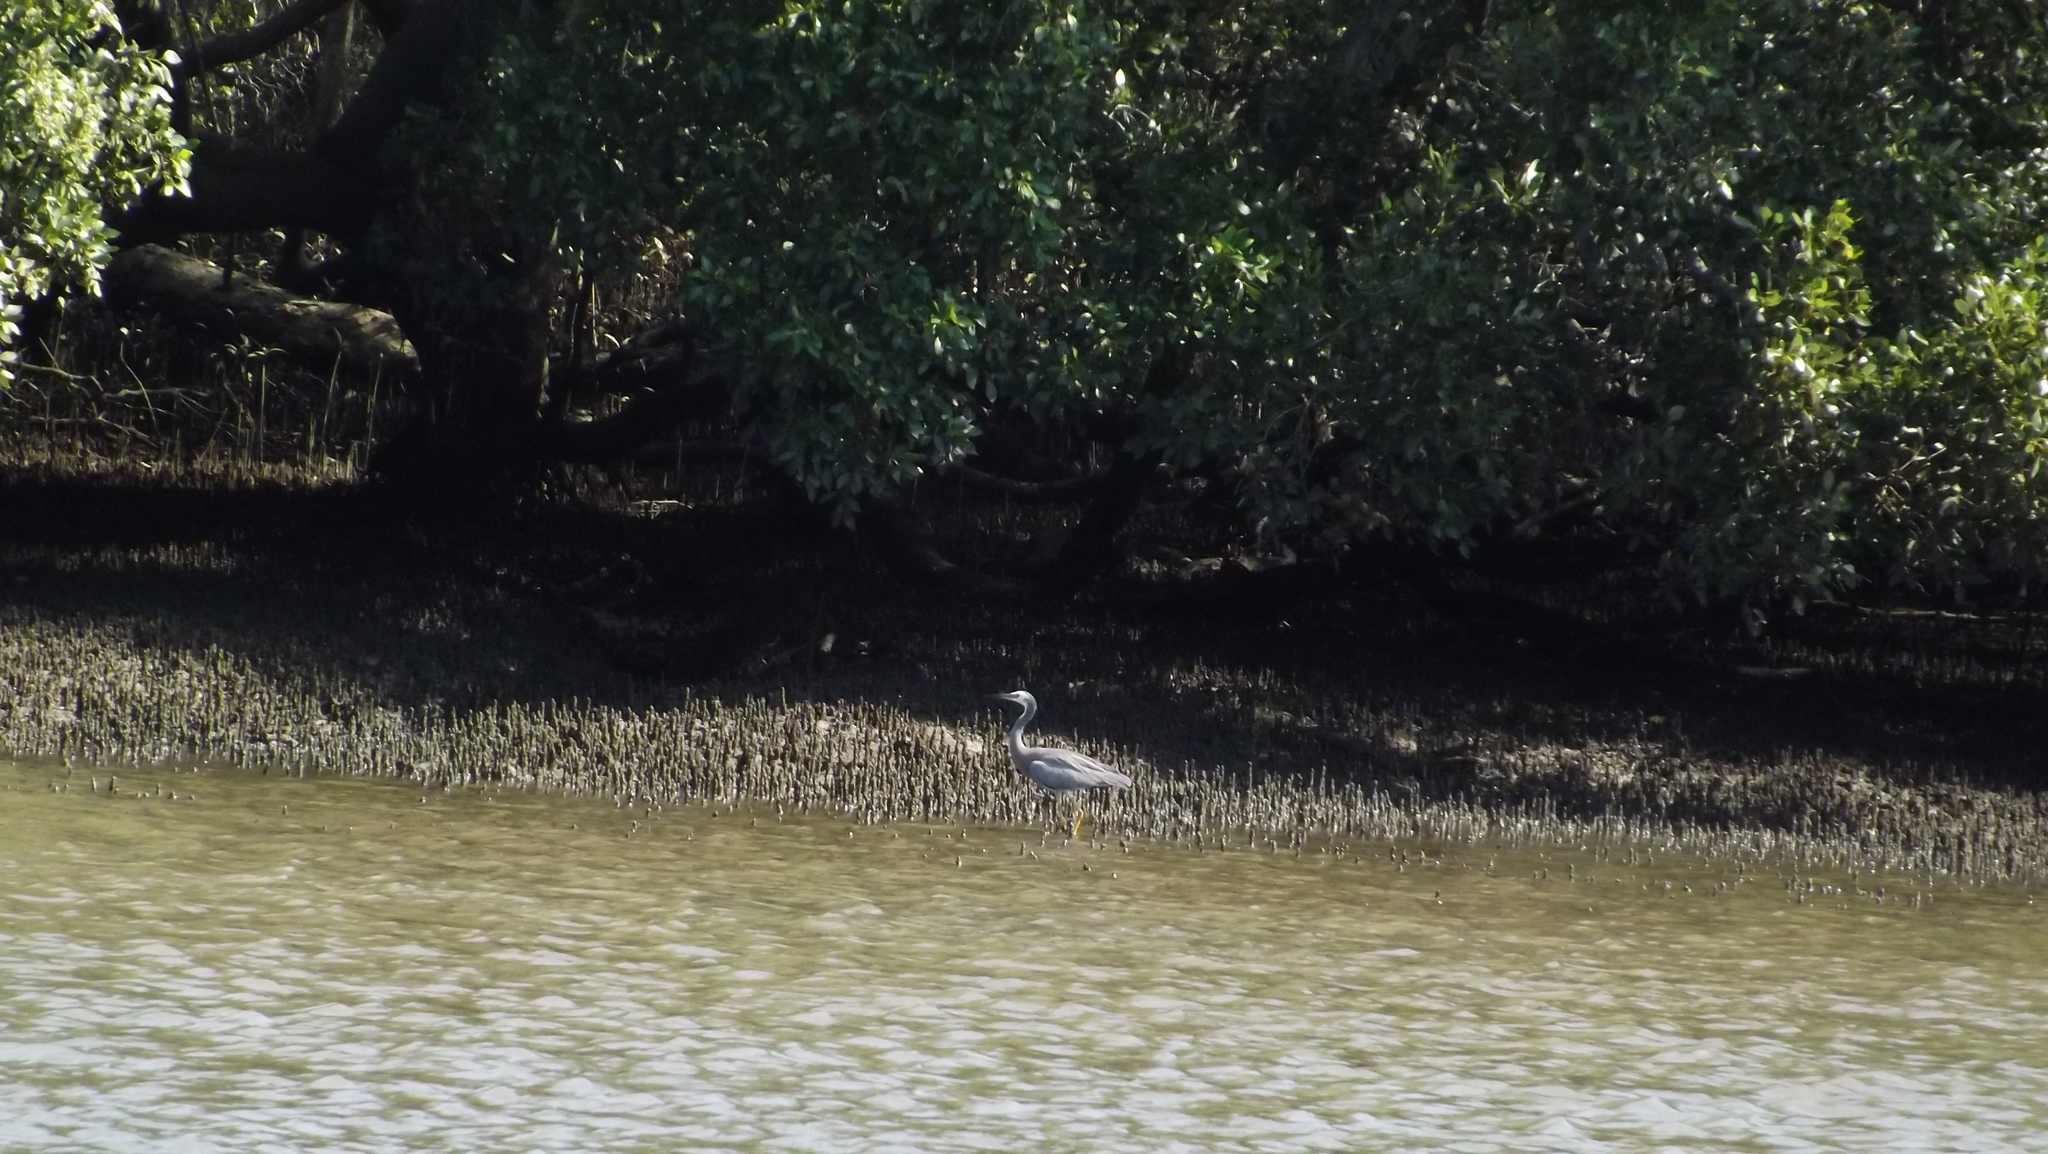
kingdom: Animalia
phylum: Chordata
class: Aves
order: Pelecaniformes
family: Ardeidae
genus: Egretta
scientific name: Egretta novaehollandiae
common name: White-faced heron
